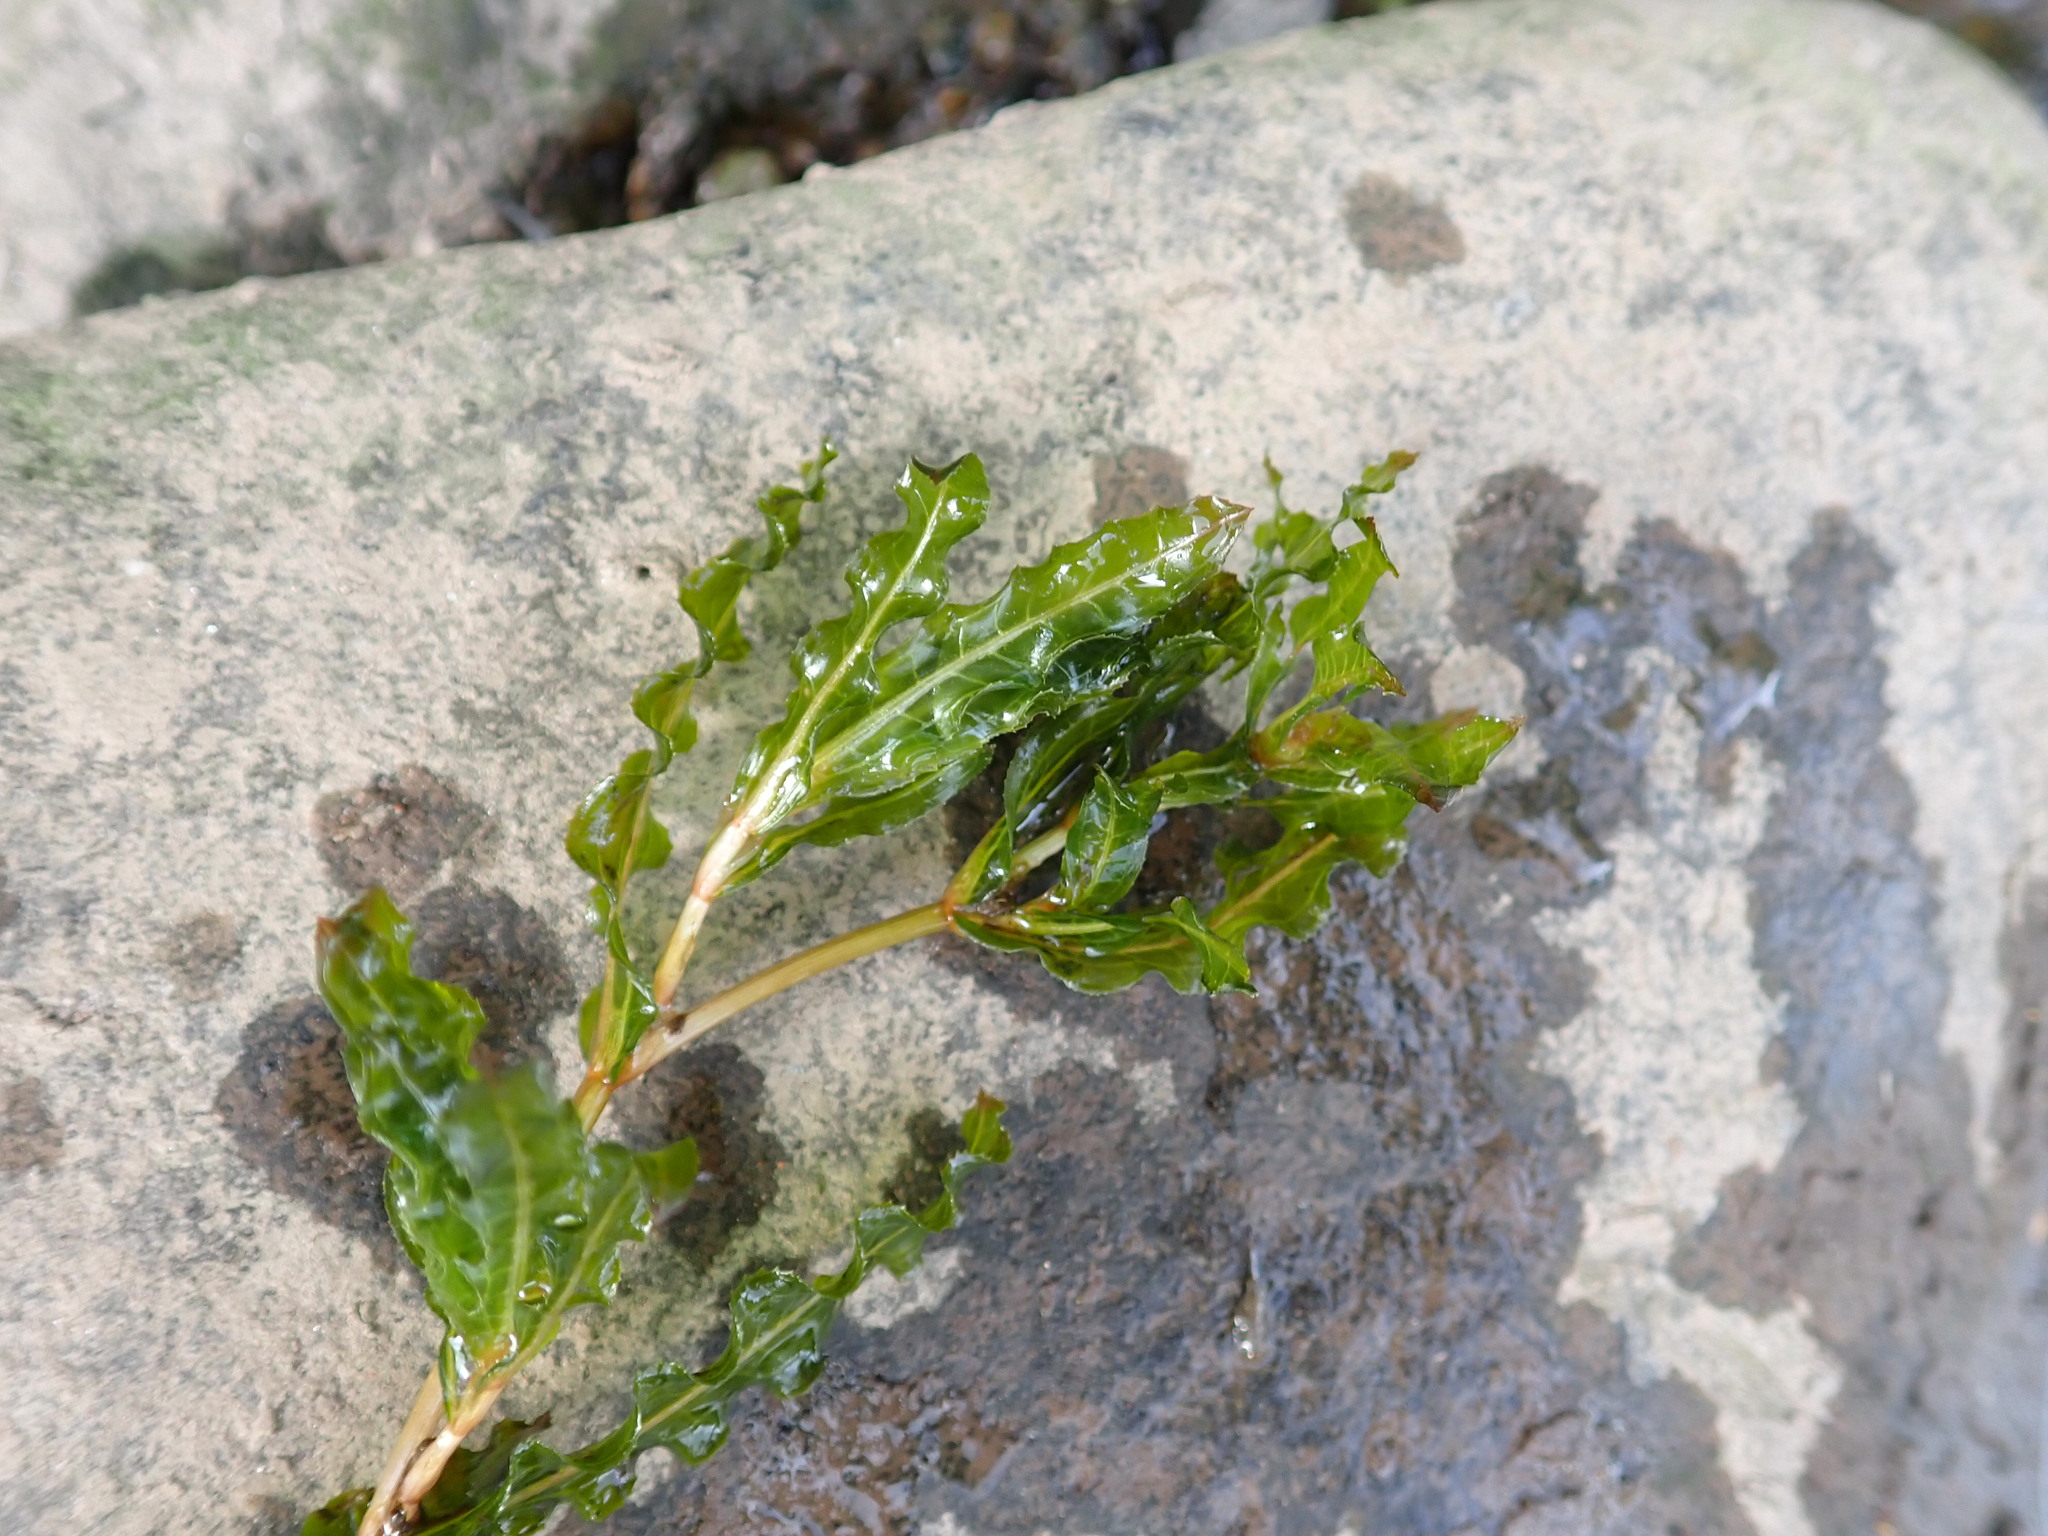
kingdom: Plantae
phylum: Tracheophyta
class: Liliopsida
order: Alismatales
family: Potamogetonaceae
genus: Potamogeton
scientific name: Potamogeton crispus
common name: Curled pondweed
